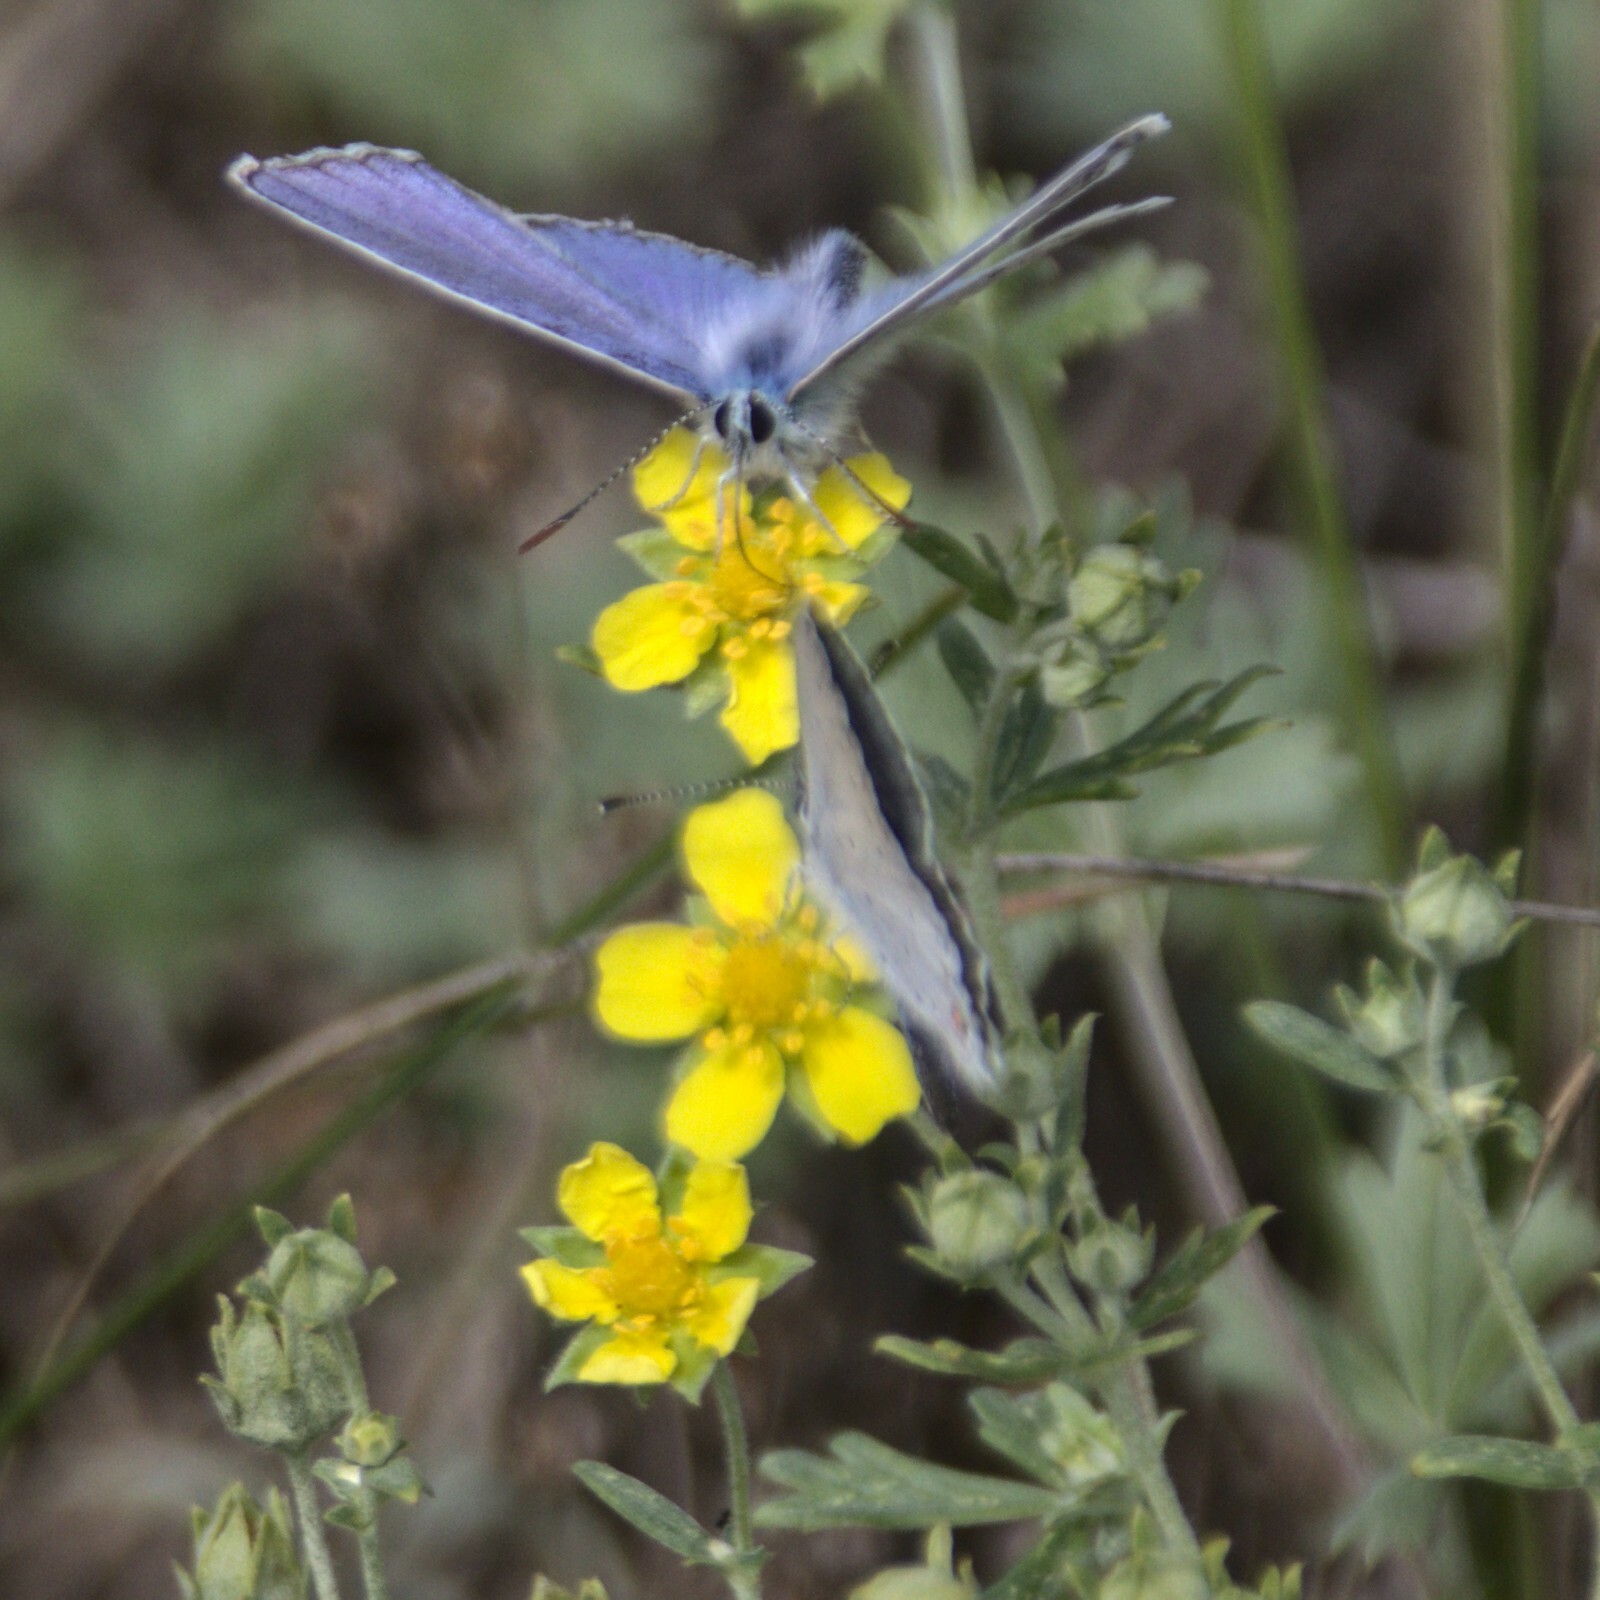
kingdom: Animalia
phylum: Arthropoda
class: Insecta
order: Lepidoptera
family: Lycaenidae
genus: Elkalyce
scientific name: Elkalyce argiades
